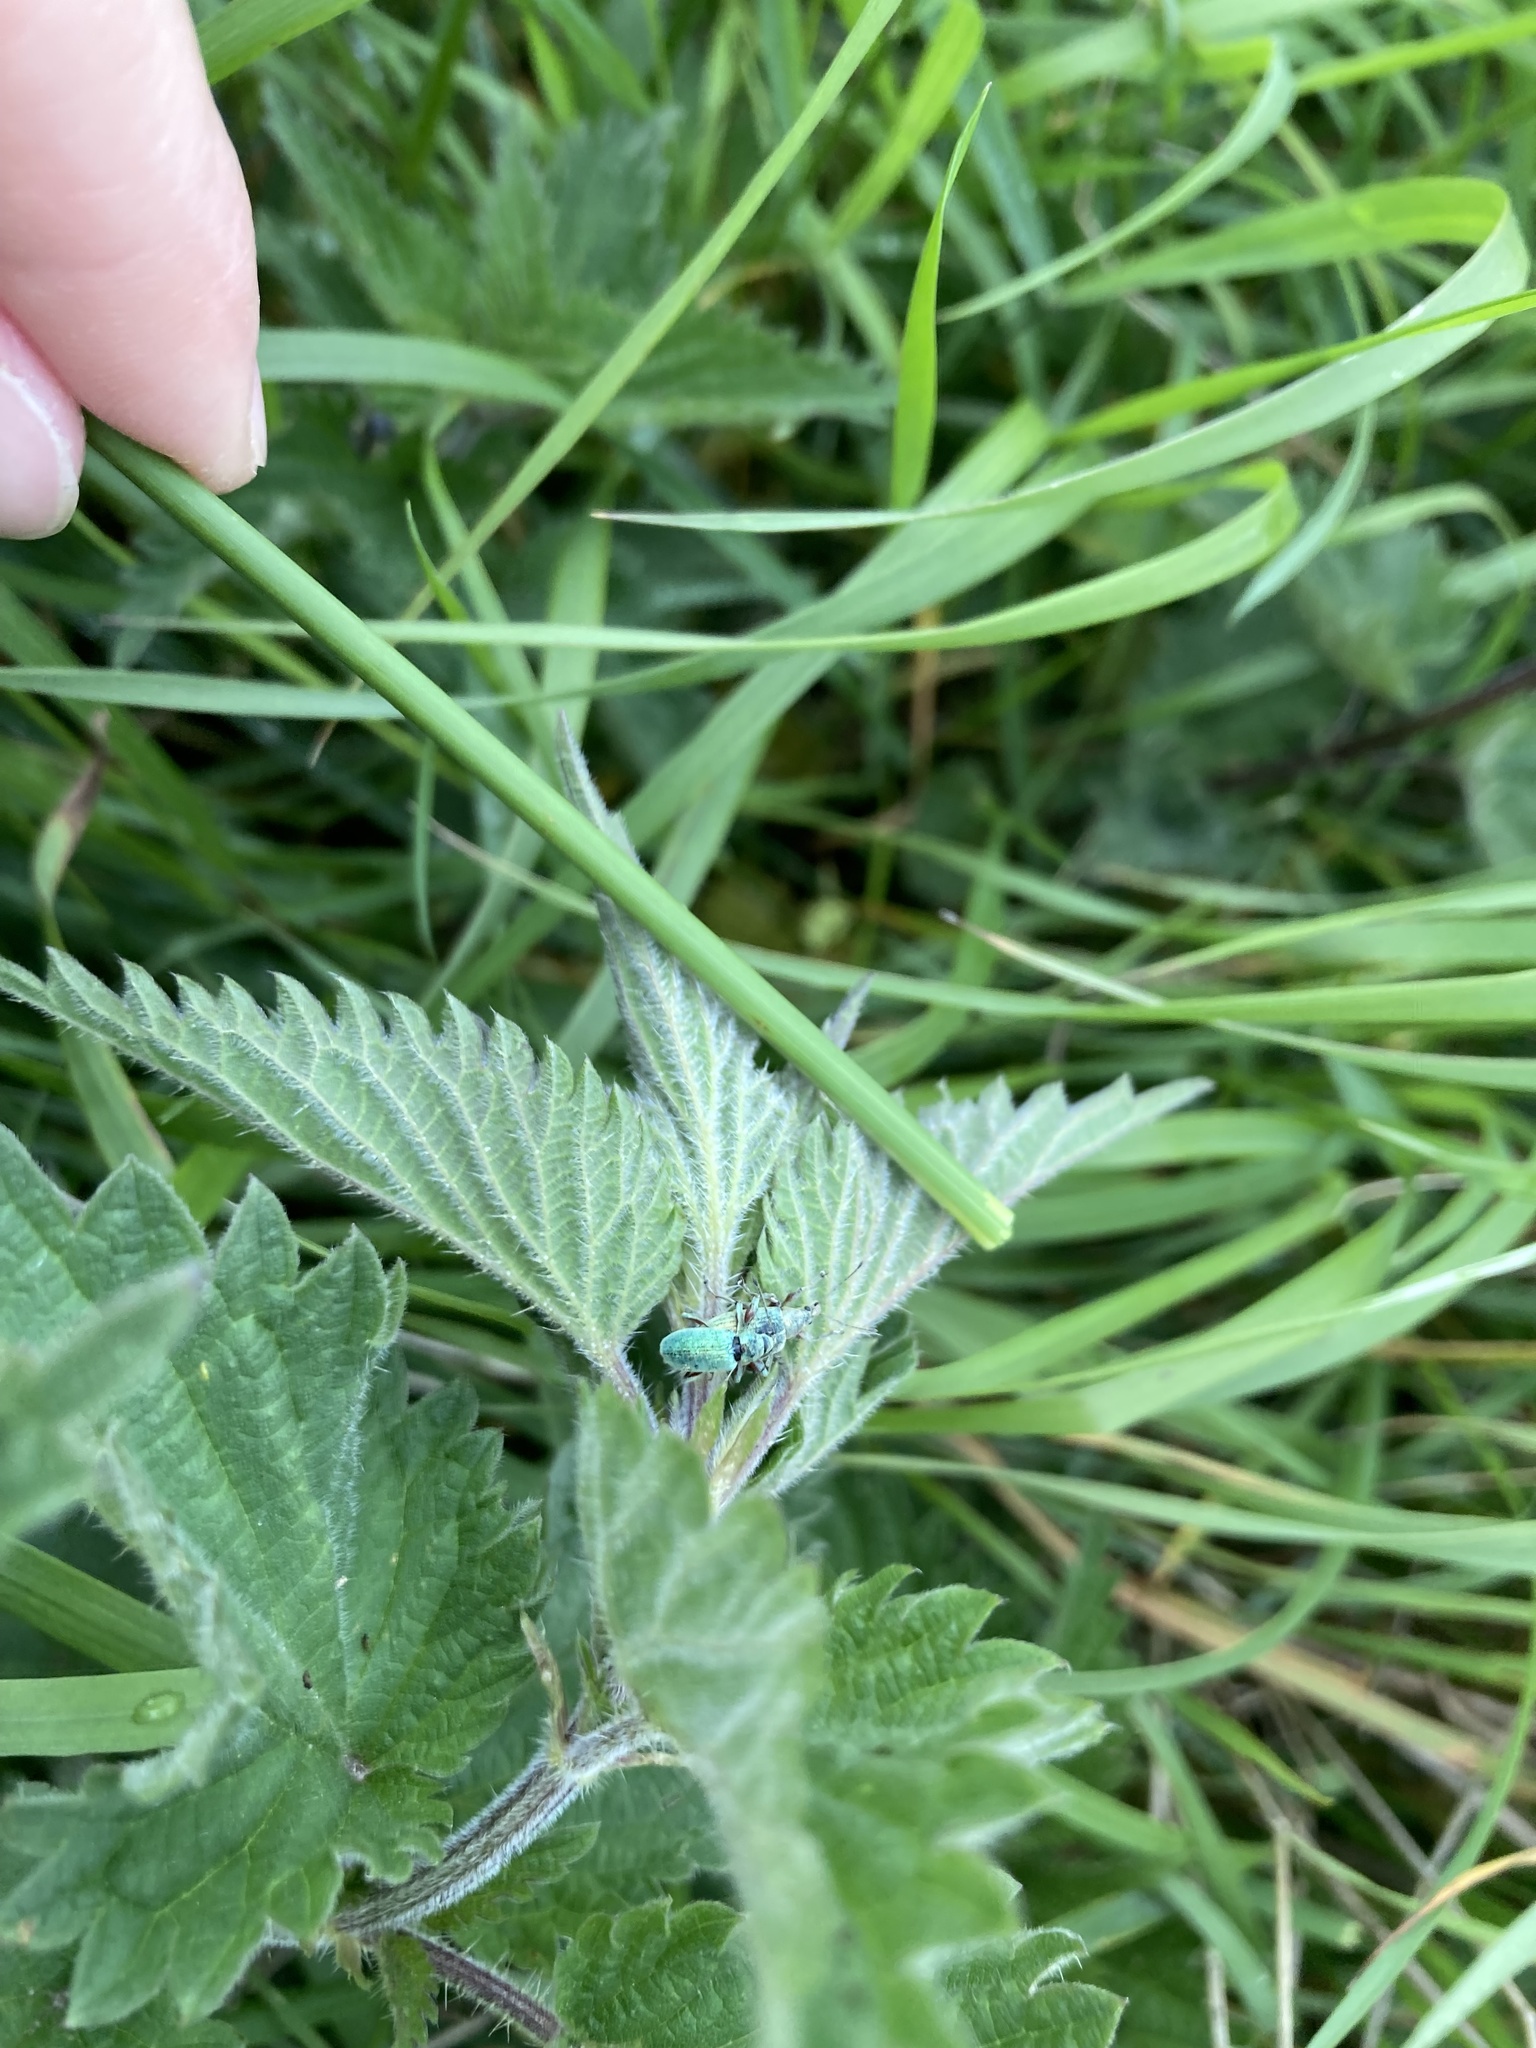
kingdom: Animalia
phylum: Arthropoda
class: Insecta
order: Coleoptera
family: Curculionidae
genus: Phyllobius
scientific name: Phyllobius pomaceus
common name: Green nettle weevil
